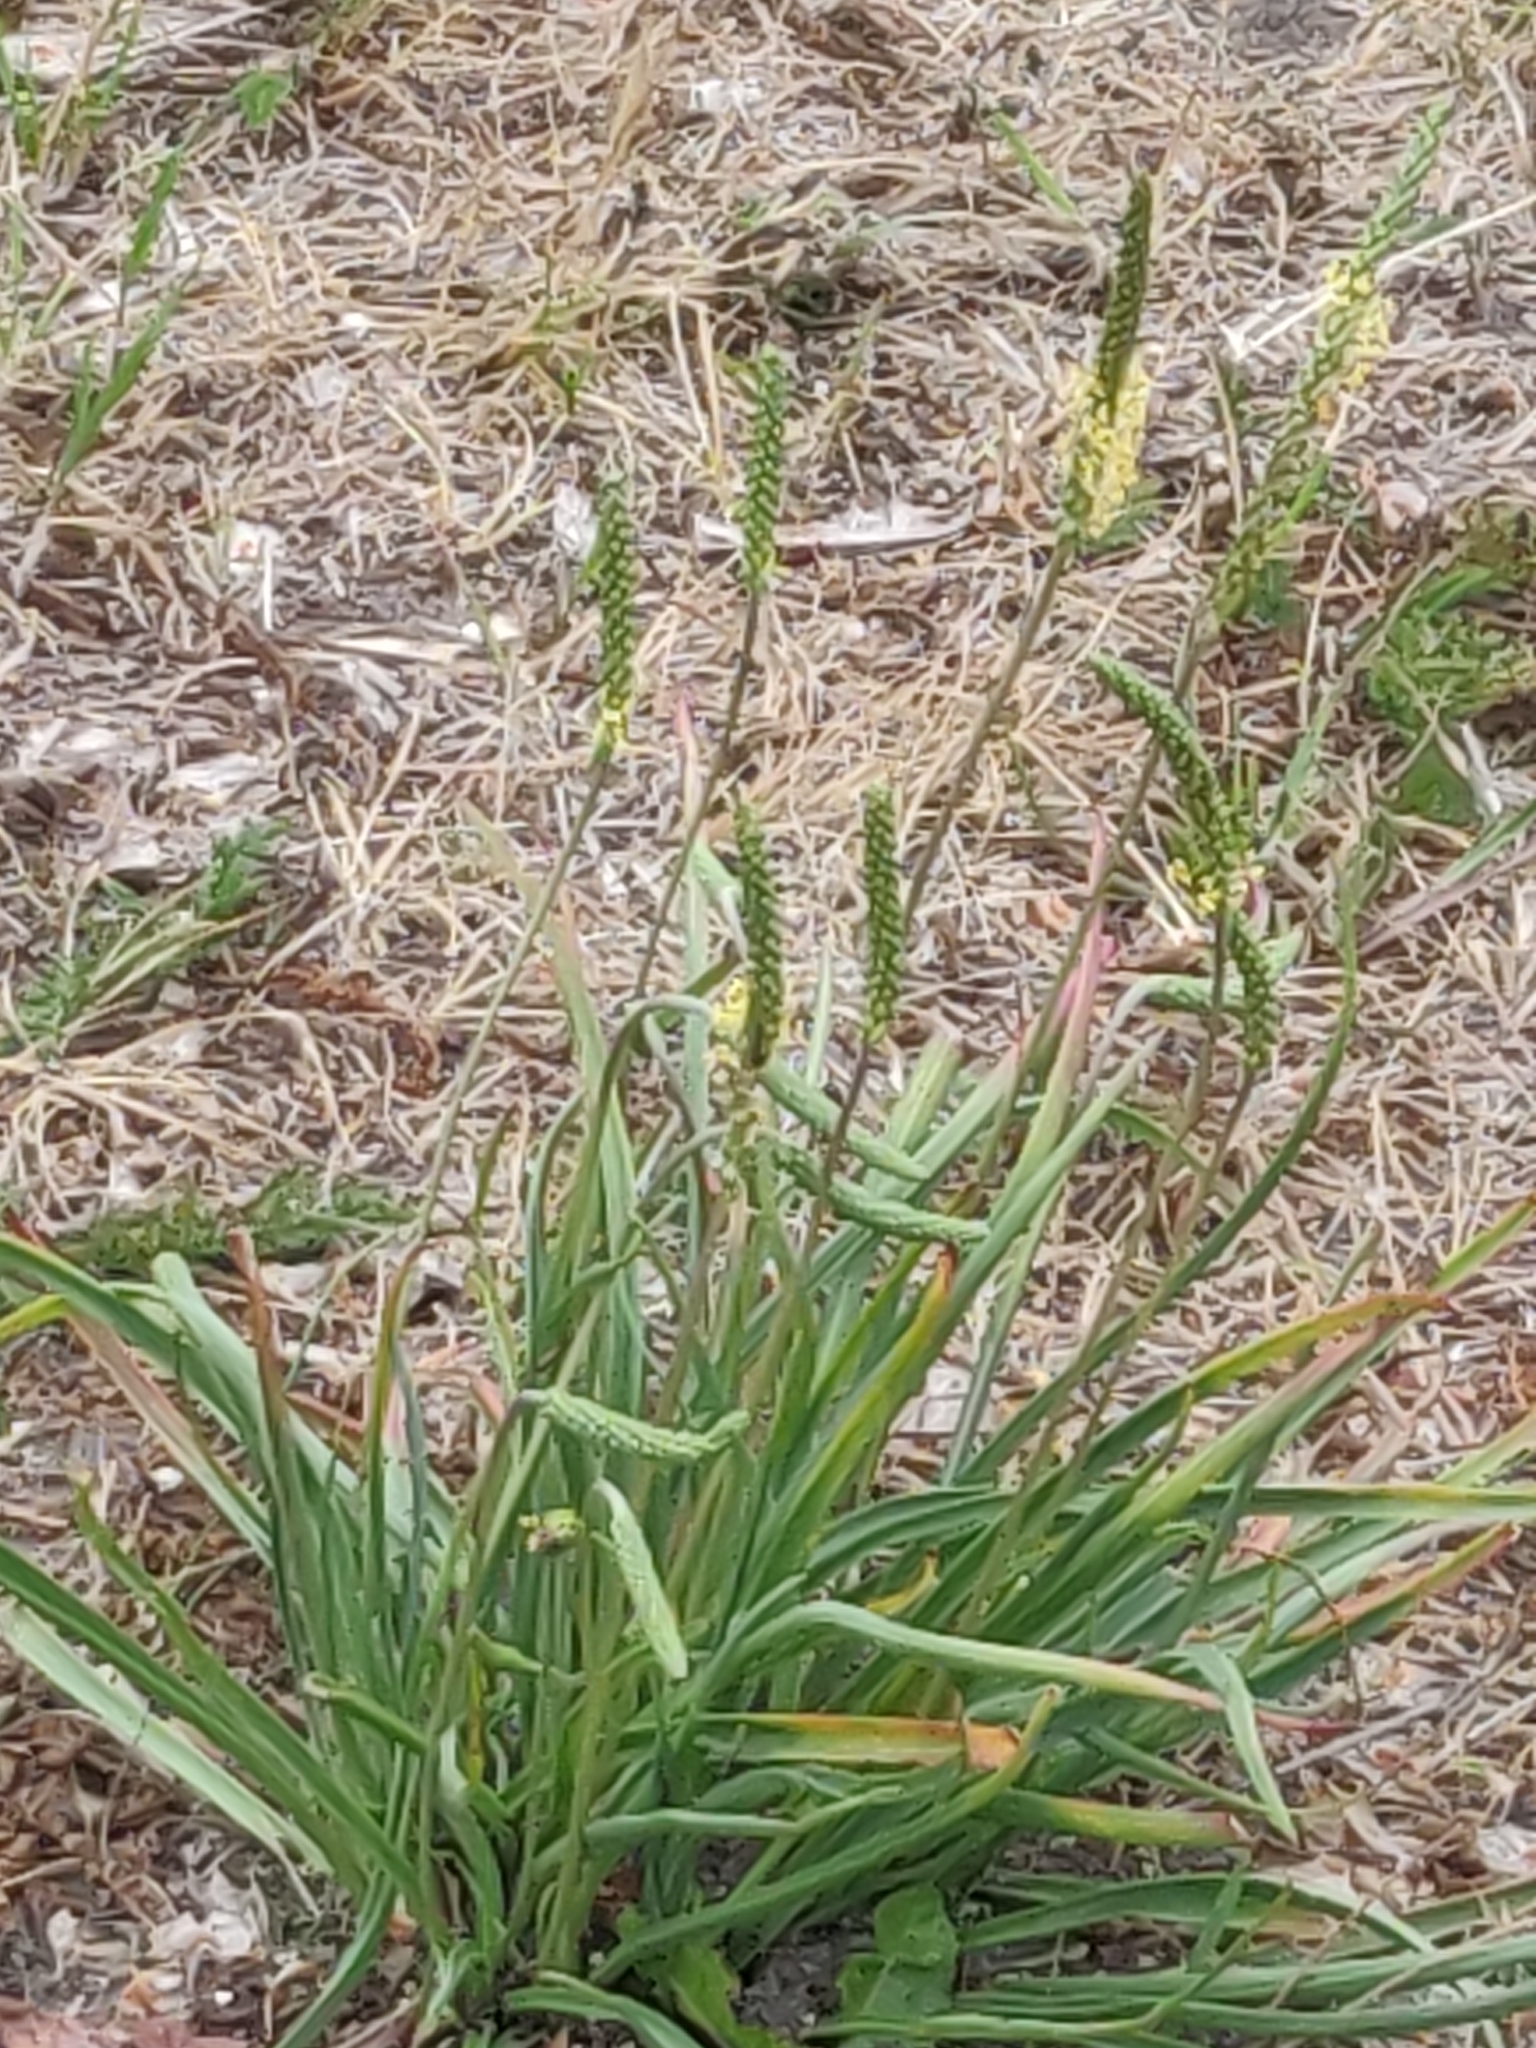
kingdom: Plantae
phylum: Tracheophyta
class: Magnoliopsida
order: Lamiales
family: Plantaginaceae
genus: Plantago
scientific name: Plantago maritima
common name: Sea plantain
